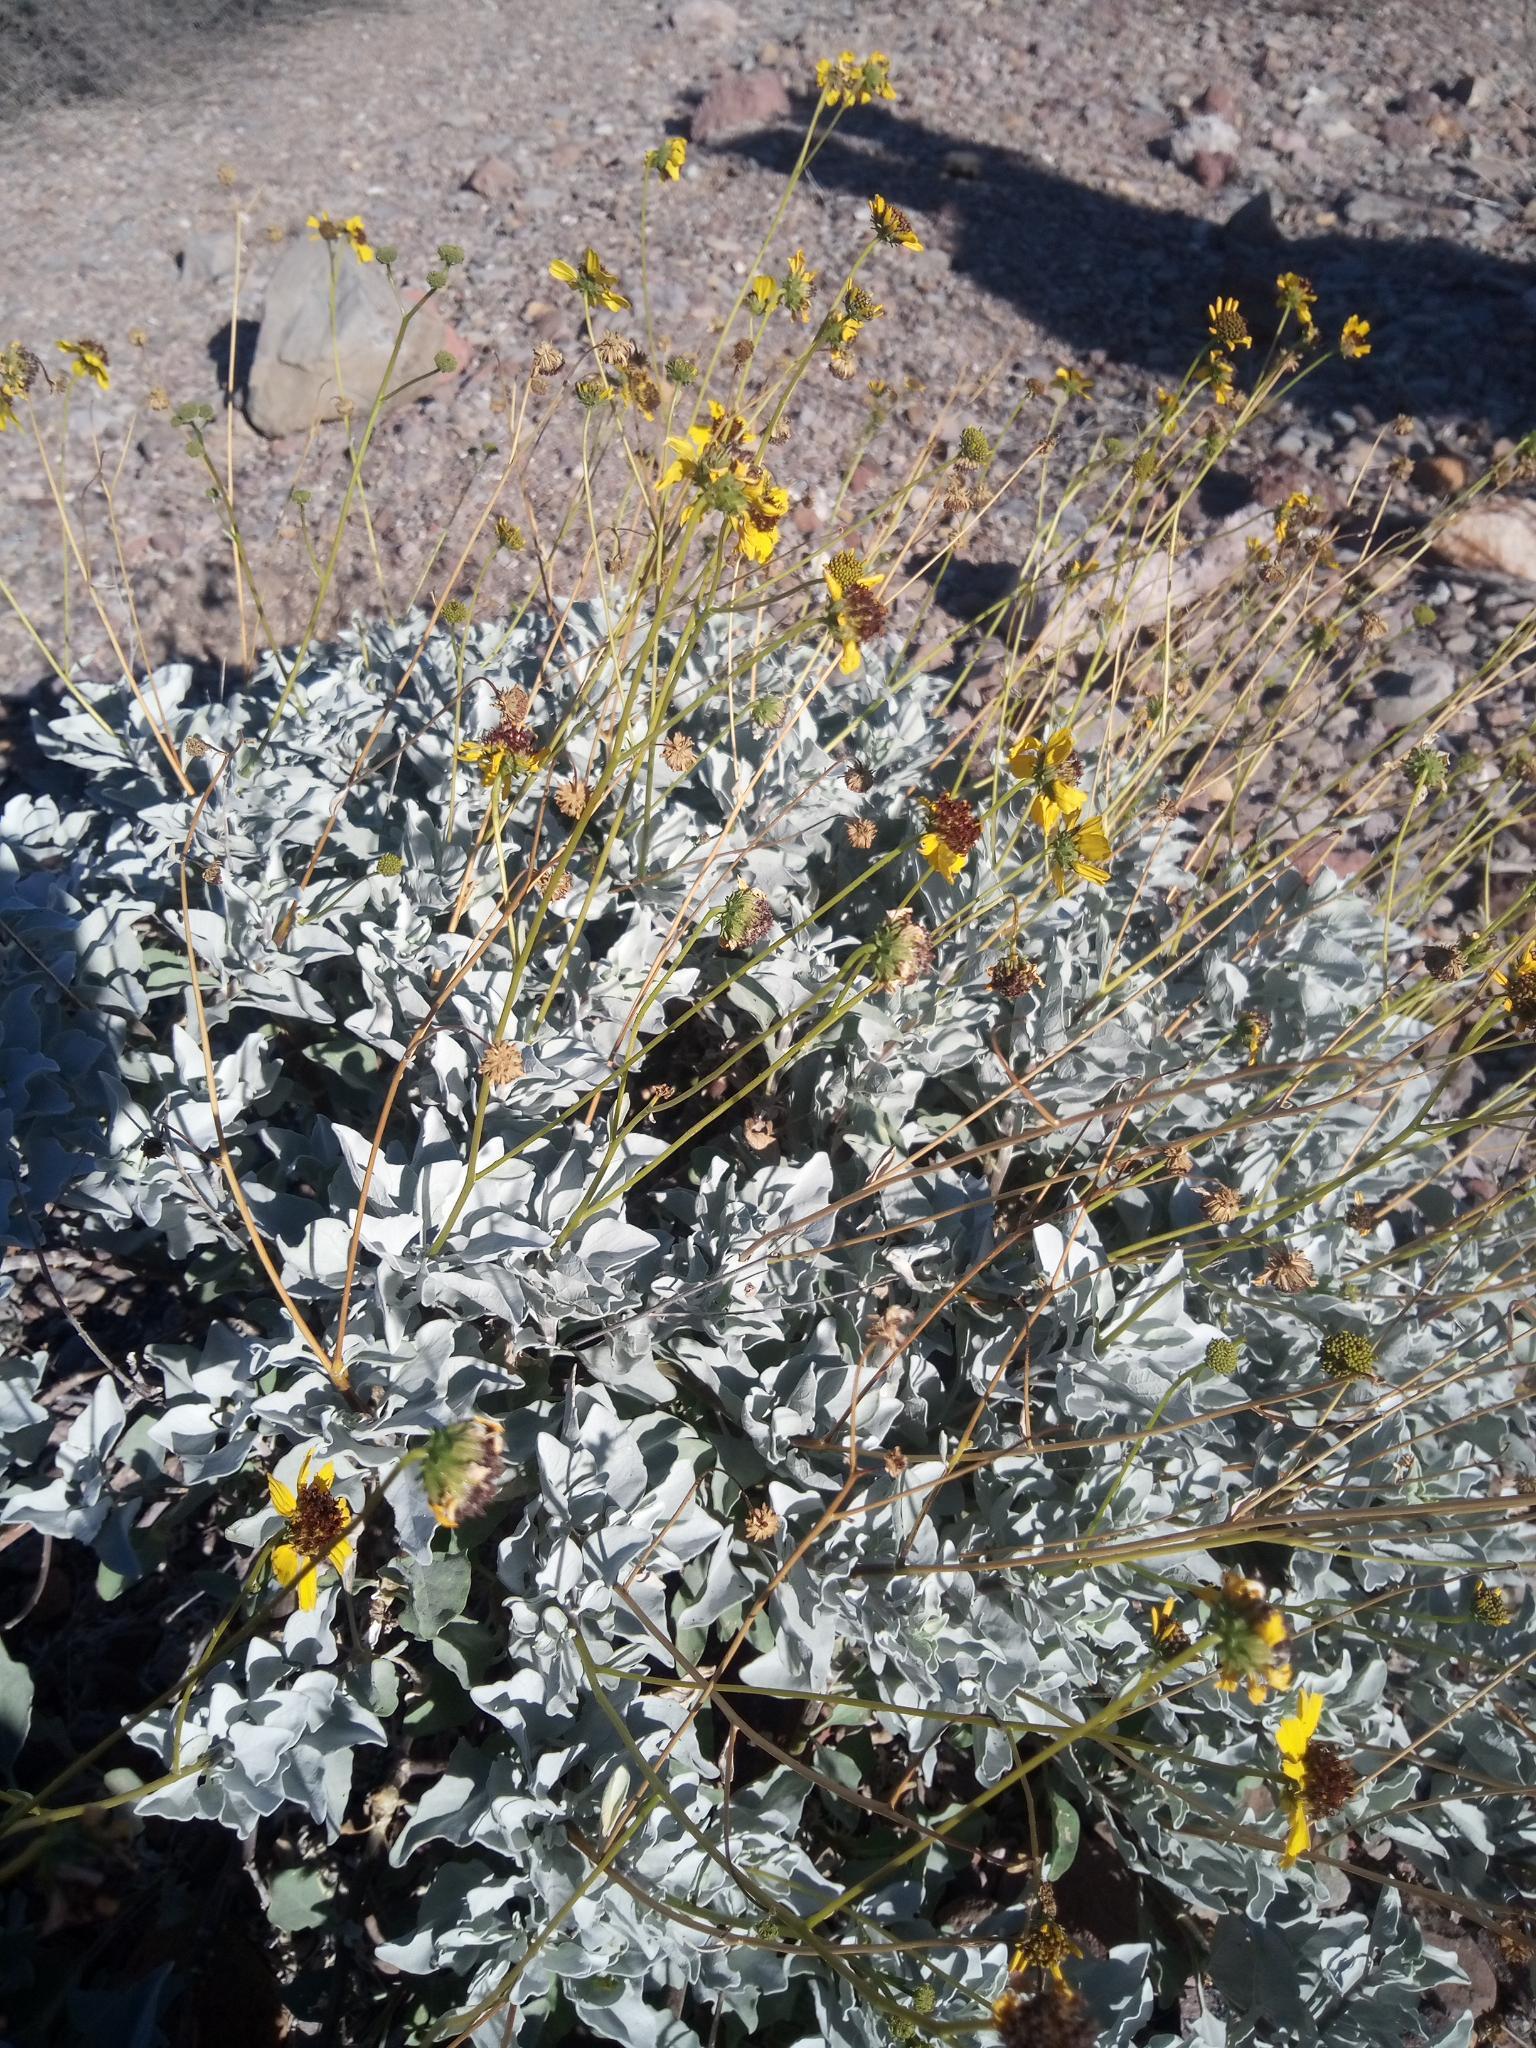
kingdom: Plantae
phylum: Tracheophyta
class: Magnoliopsida
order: Asterales
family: Asteraceae
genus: Encelia
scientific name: Encelia farinosa
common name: Brittlebush
